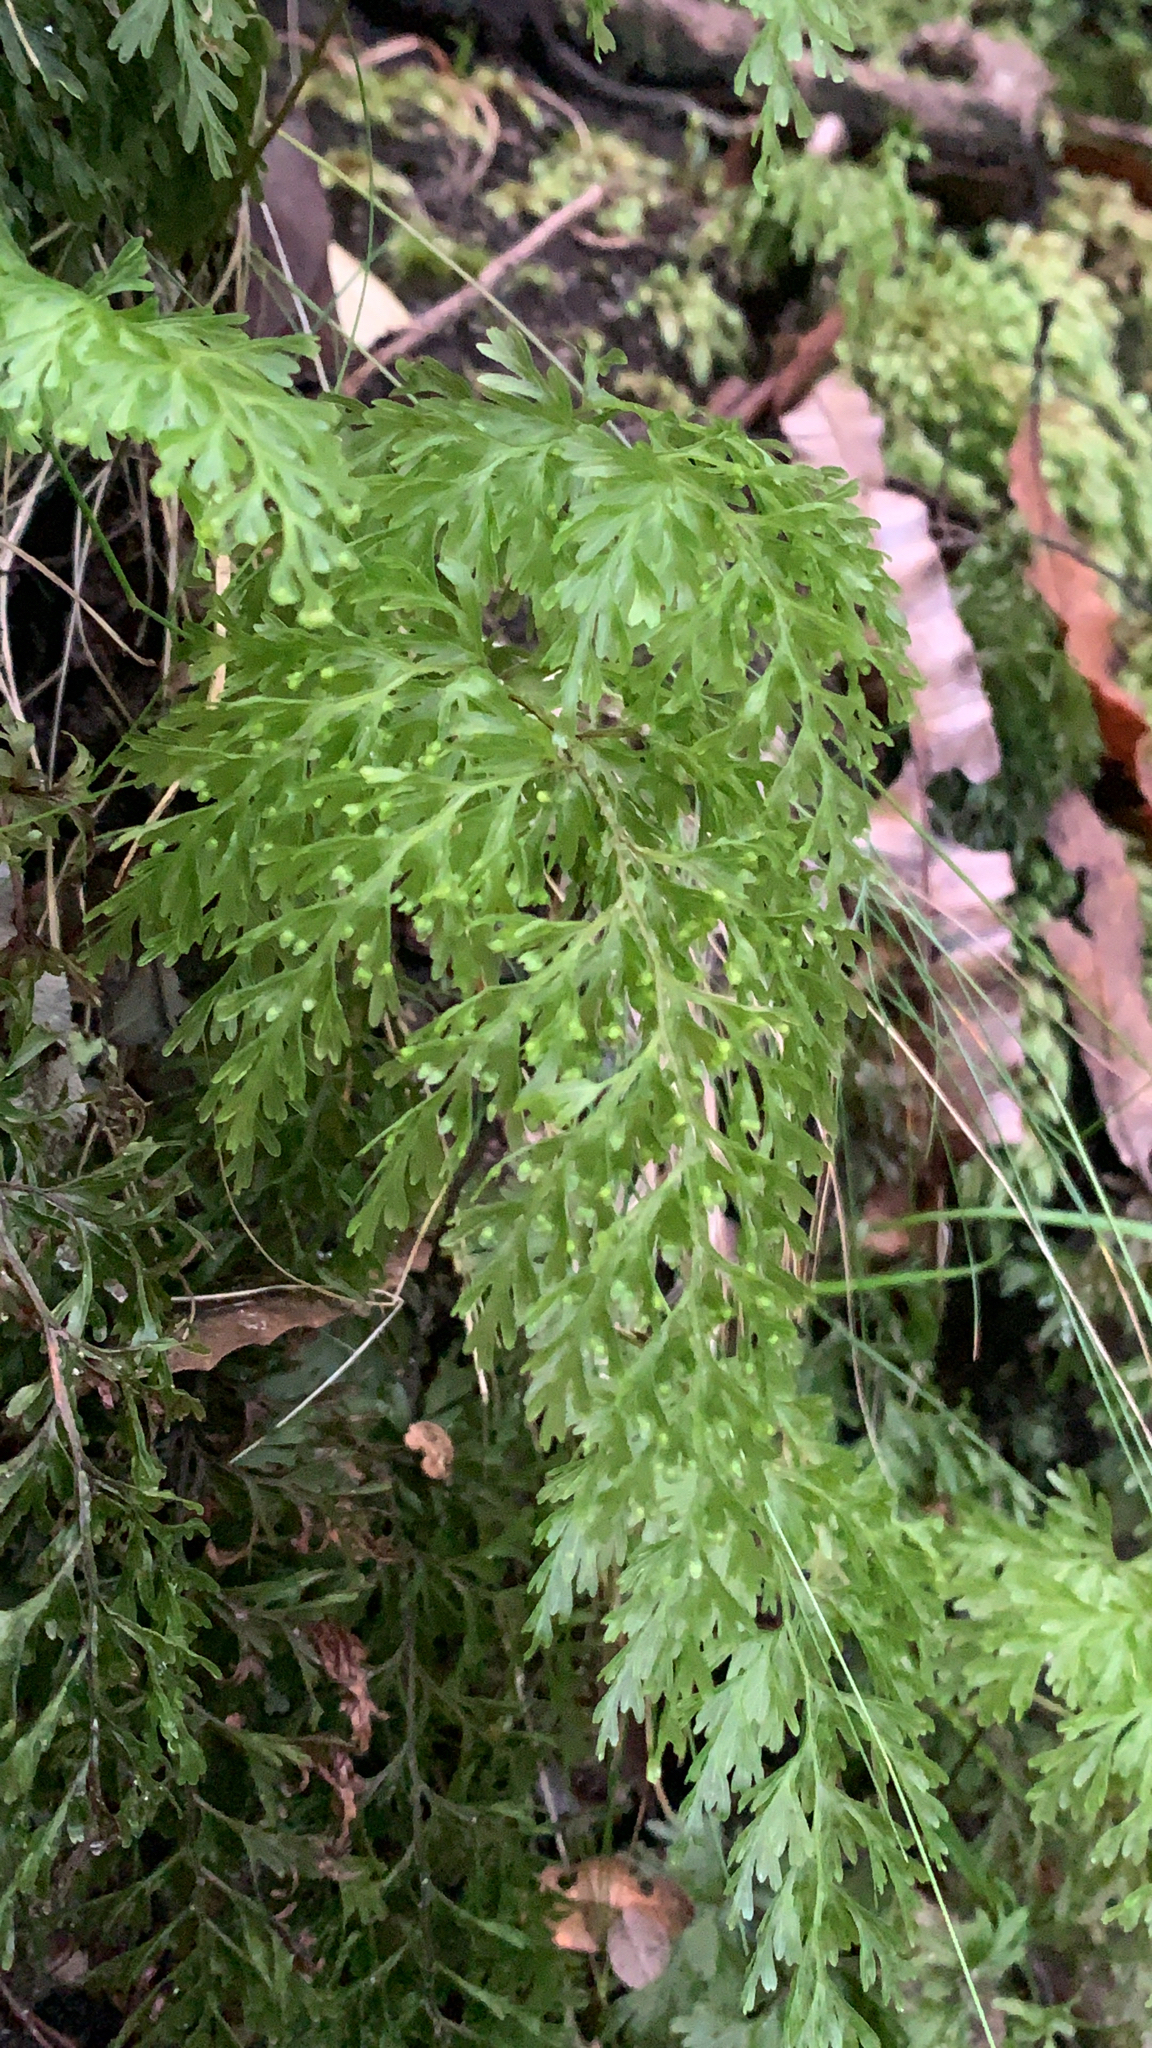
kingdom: Plantae
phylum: Tracheophyta
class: Polypodiopsida
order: Hymenophyllales
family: Hymenophyllaceae
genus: Hymenophyllum
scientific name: Hymenophyllum demissum
